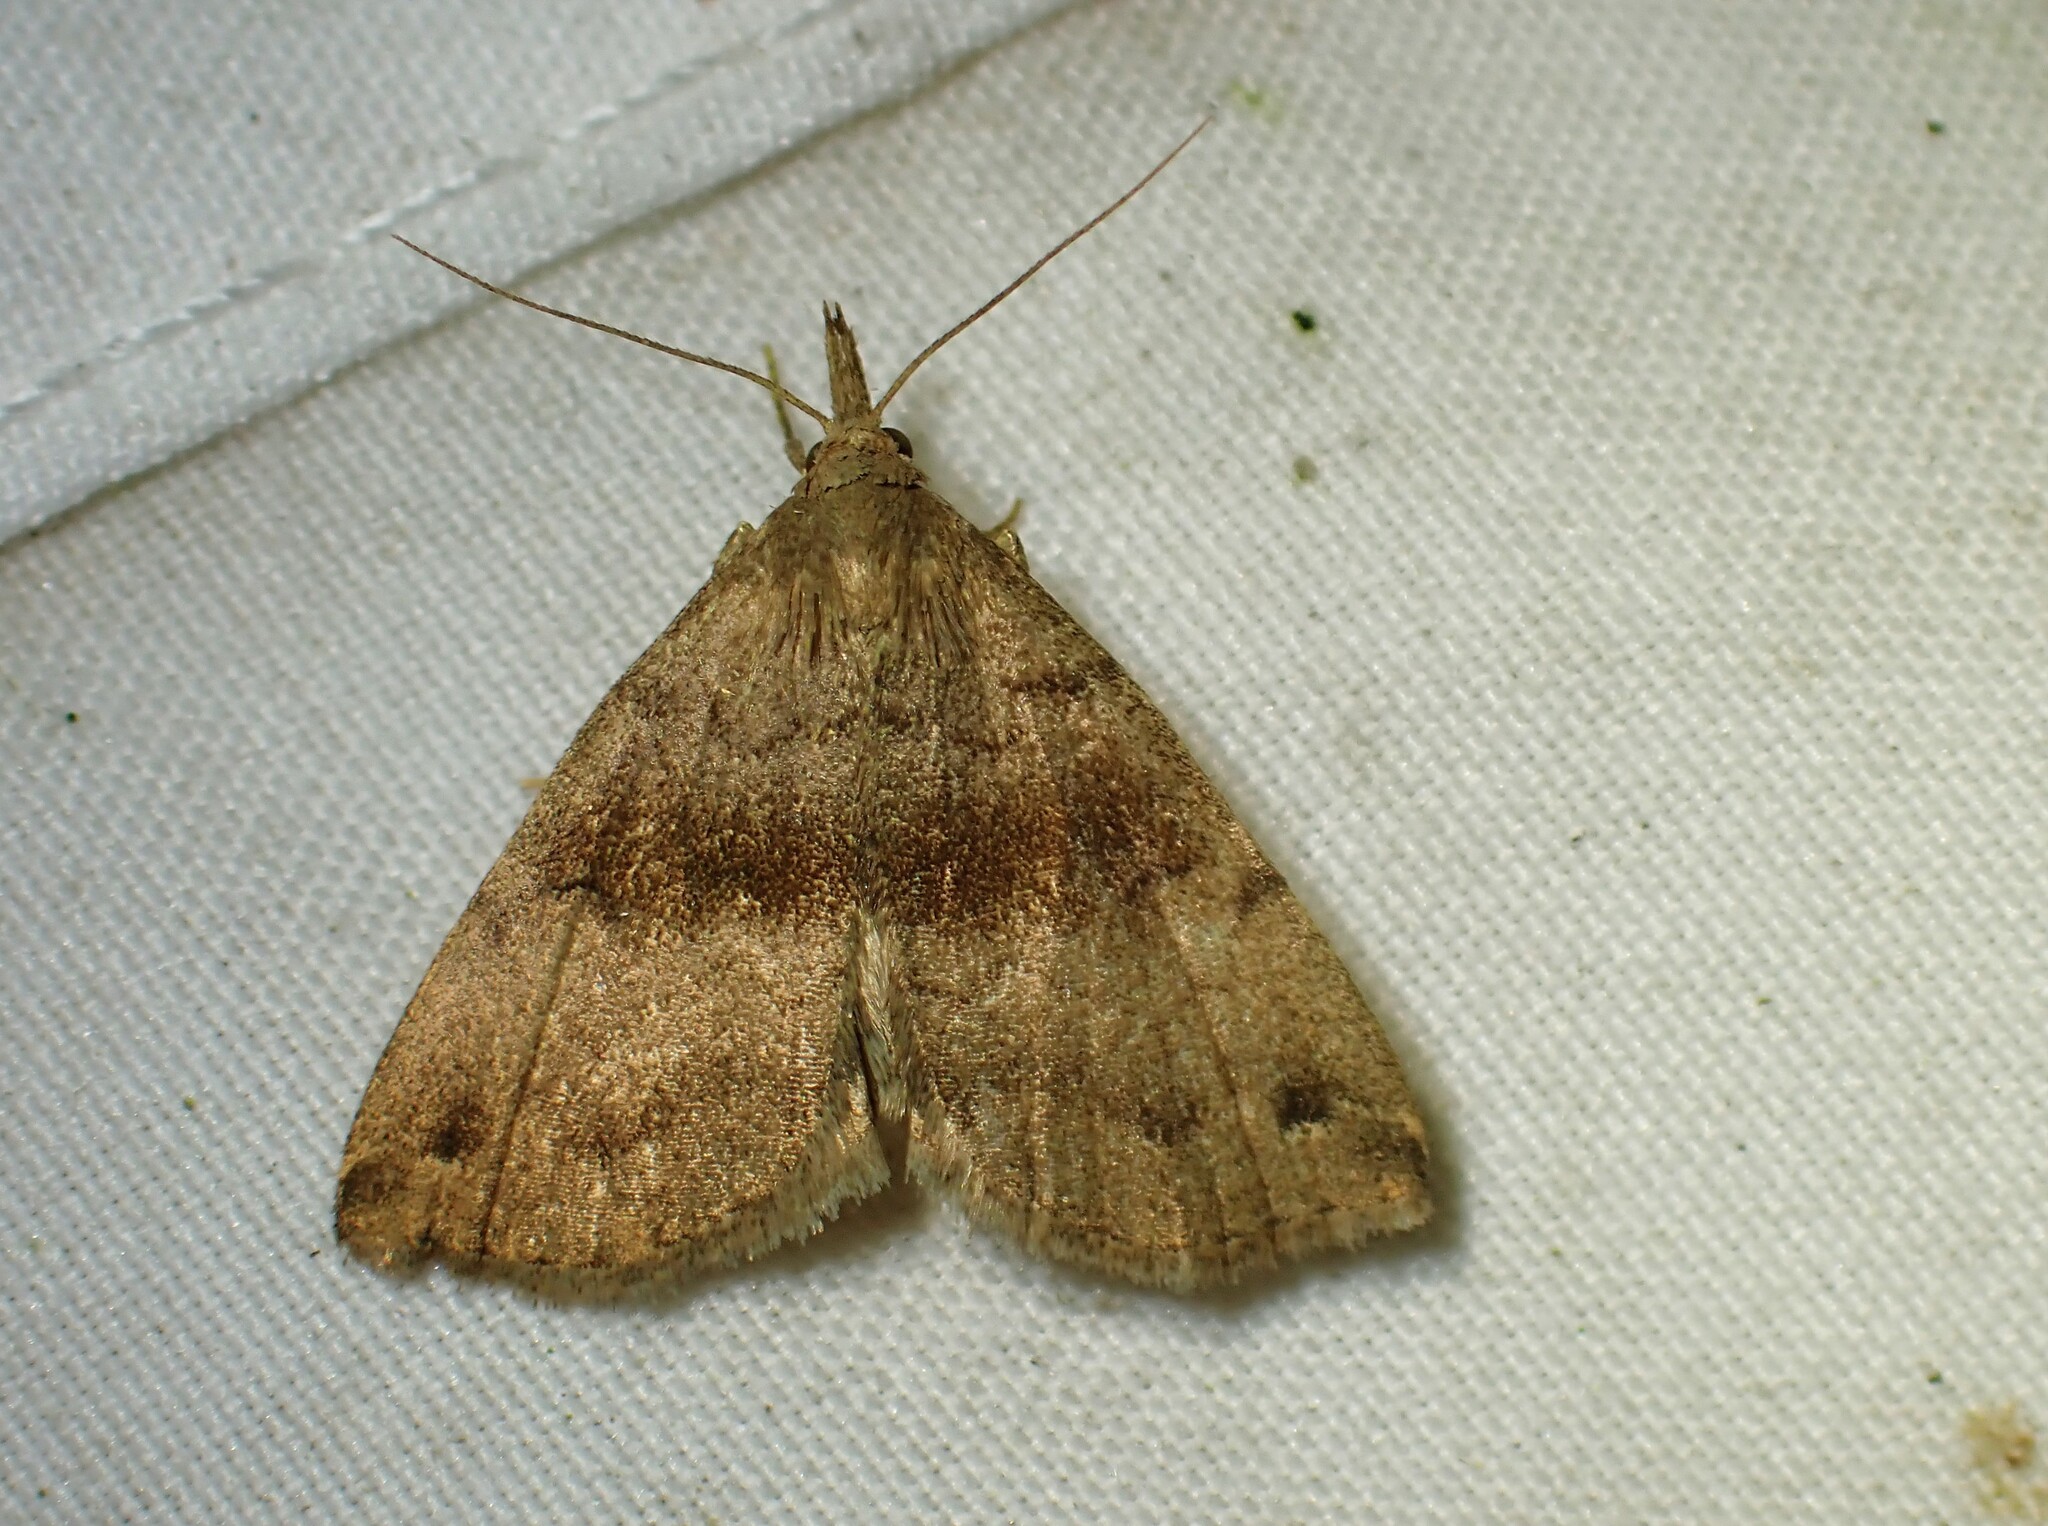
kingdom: Animalia
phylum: Arthropoda
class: Insecta
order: Lepidoptera
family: Erebidae
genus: Phalaenostola
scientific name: Phalaenostola eumelusalis
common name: Dark phalaenostola moth
